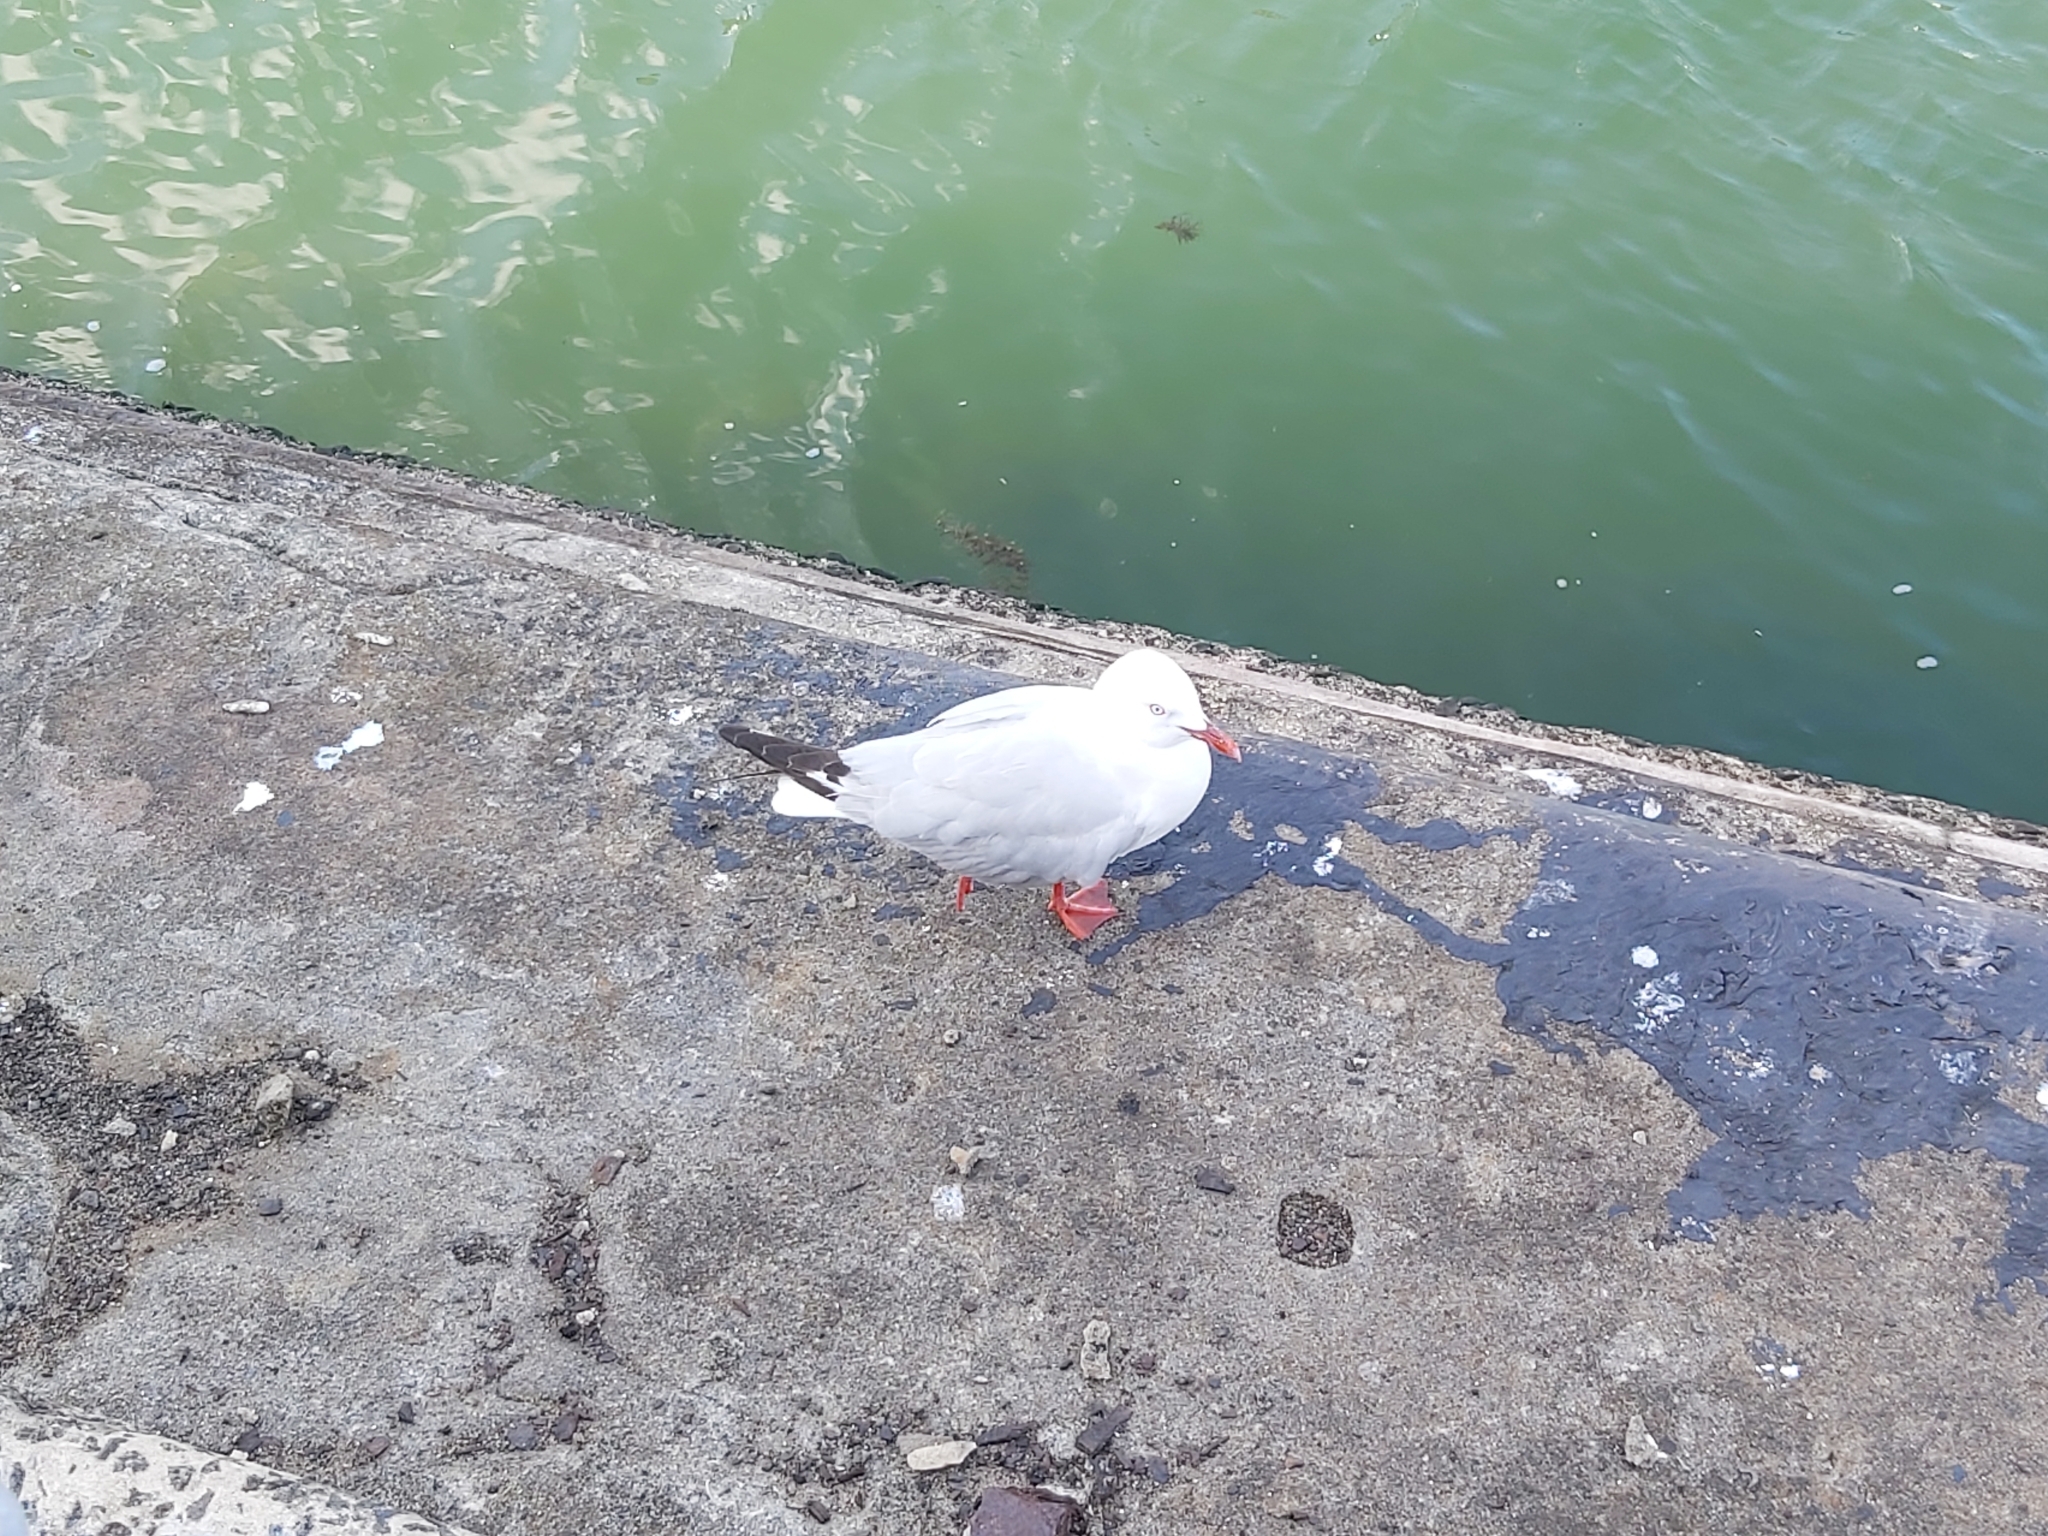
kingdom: Animalia
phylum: Chordata
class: Aves
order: Charadriiformes
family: Laridae
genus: Chroicocephalus
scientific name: Chroicocephalus novaehollandiae
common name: Silver gull
